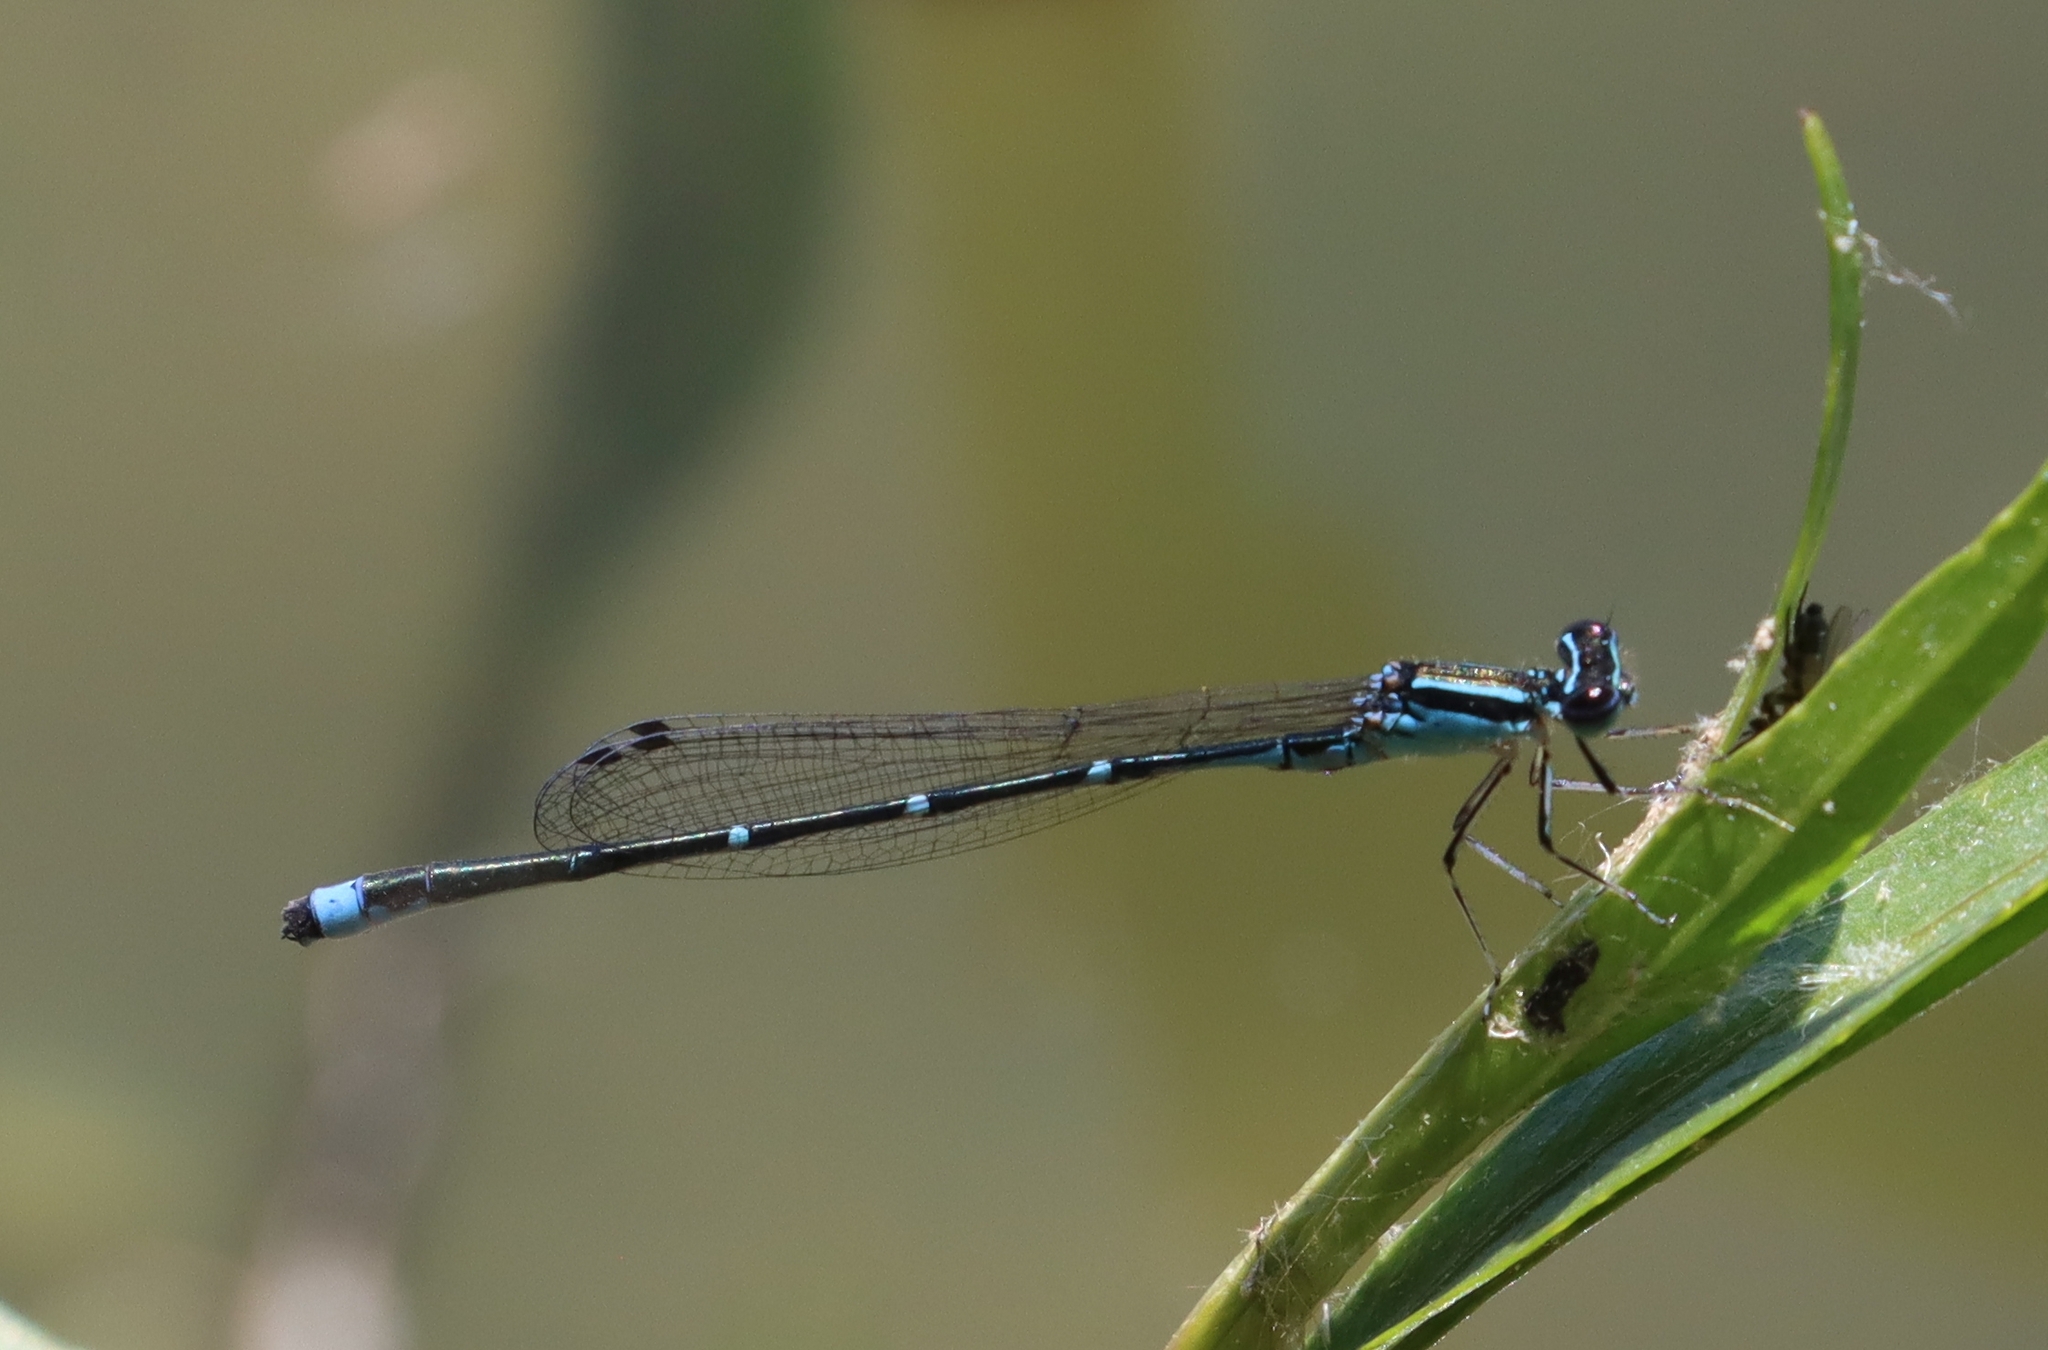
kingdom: Animalia
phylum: Arthropoda
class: Insecta
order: Odonata
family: Coenagrionidae
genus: Enallagma
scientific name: Enallagma exsulans
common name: Stream bluet
